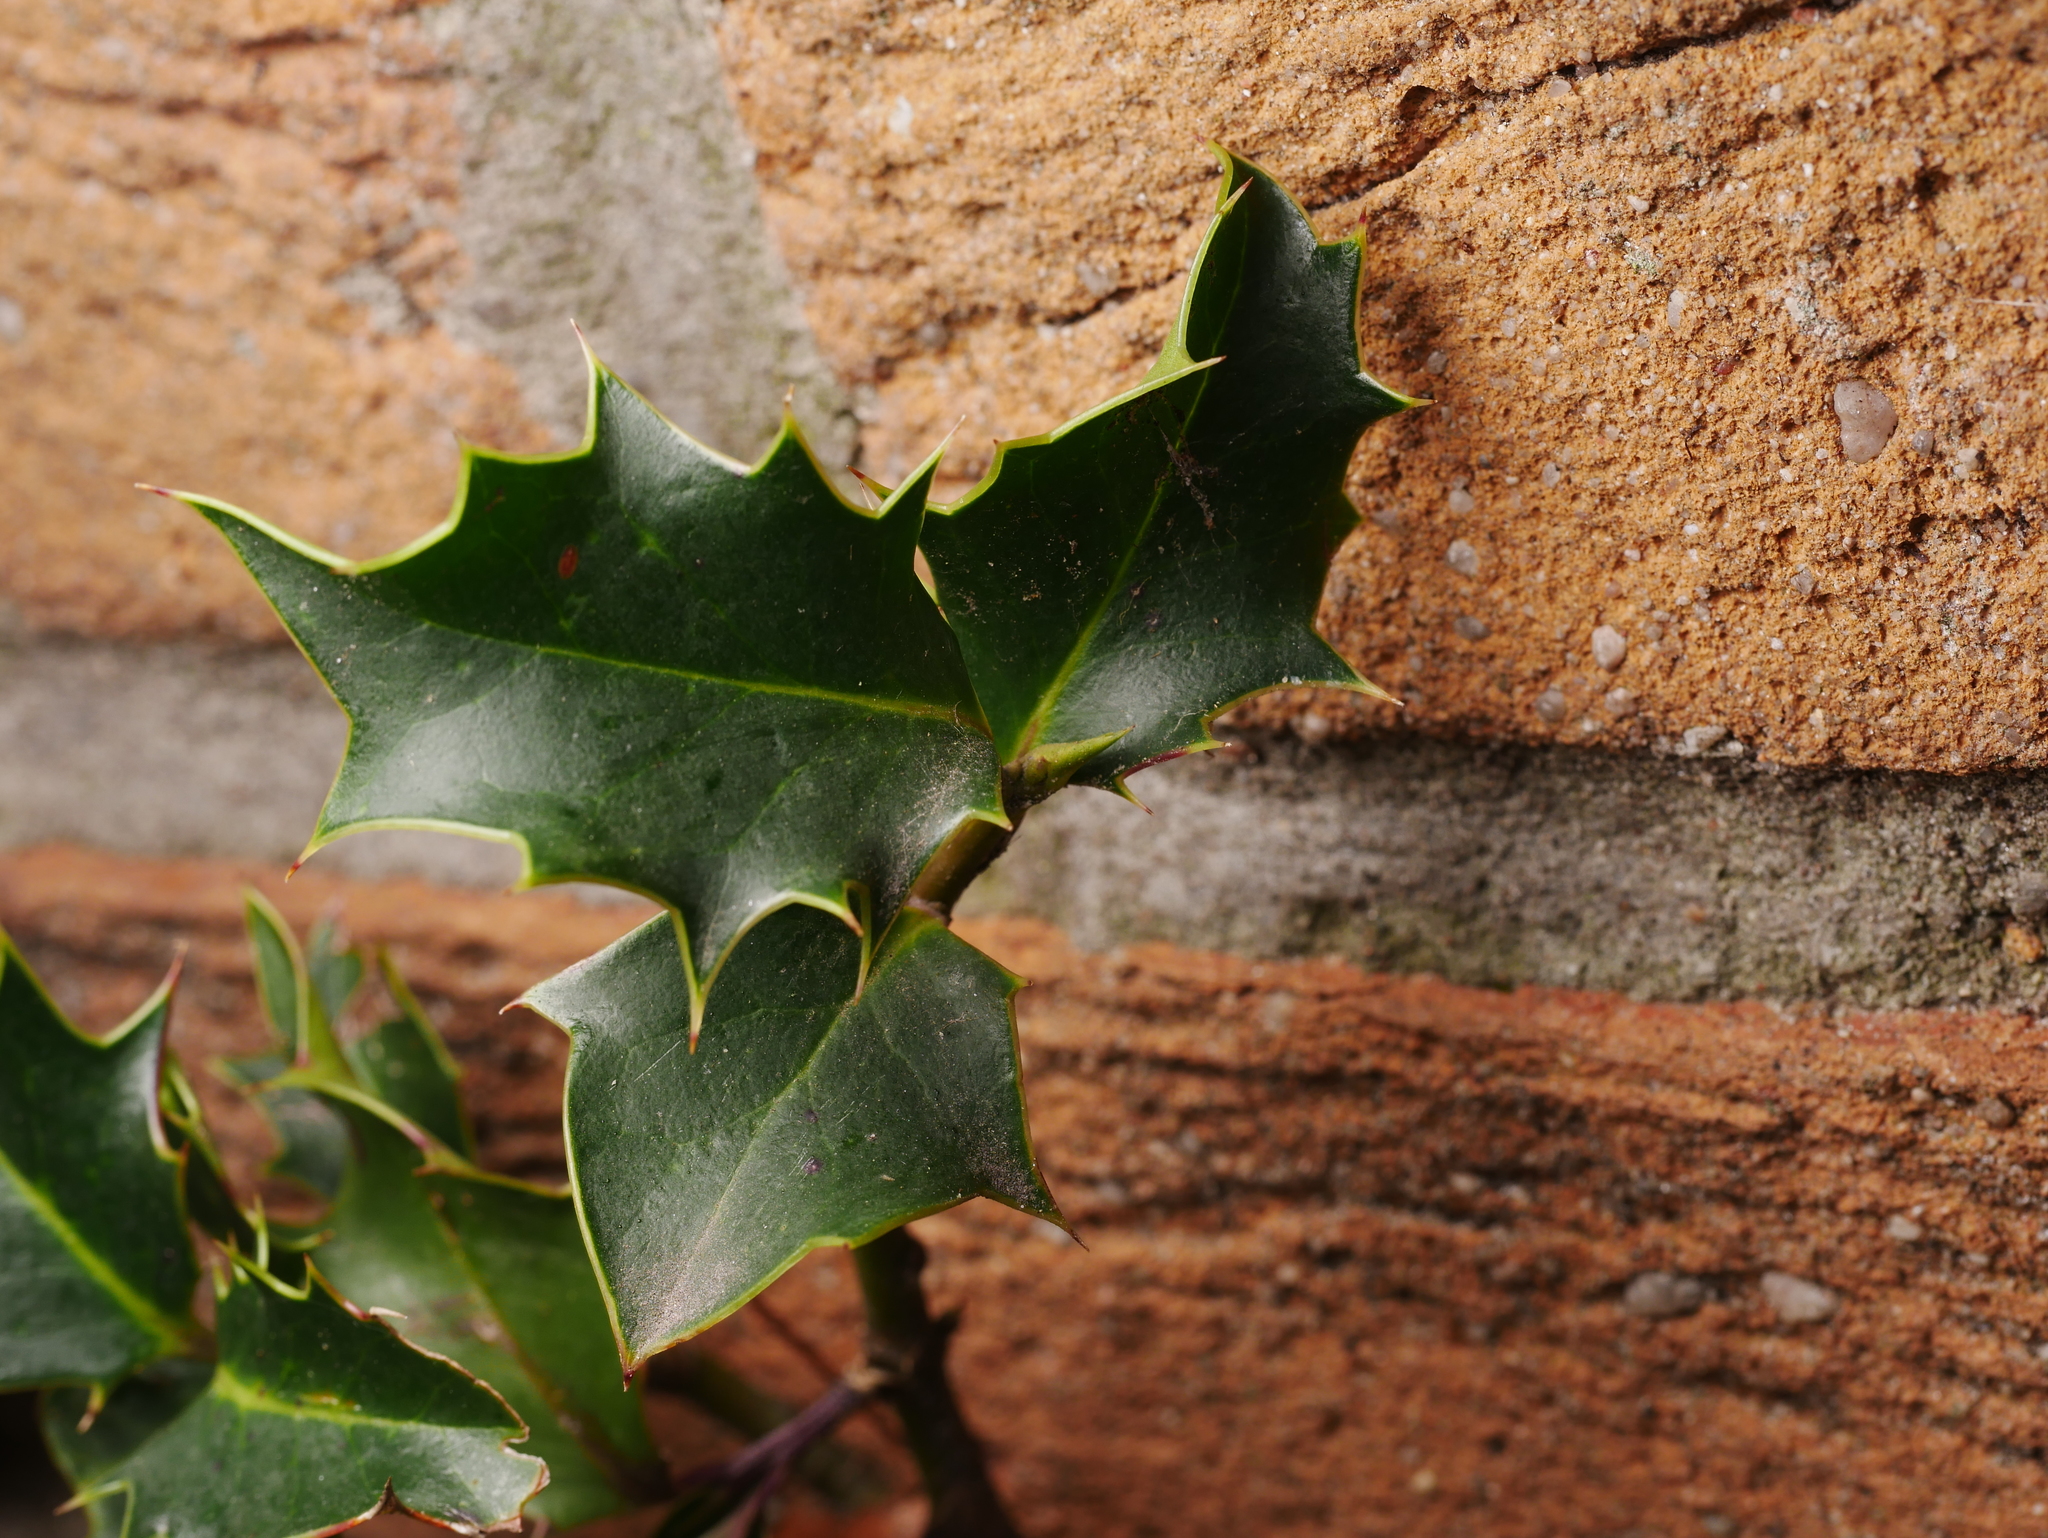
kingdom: Plantae
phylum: Tracheophyta
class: Magnoliopsida
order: Aquifoliales
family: Aquifoliaceae
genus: Ilex
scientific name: Ilex aquifolium
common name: English holly
